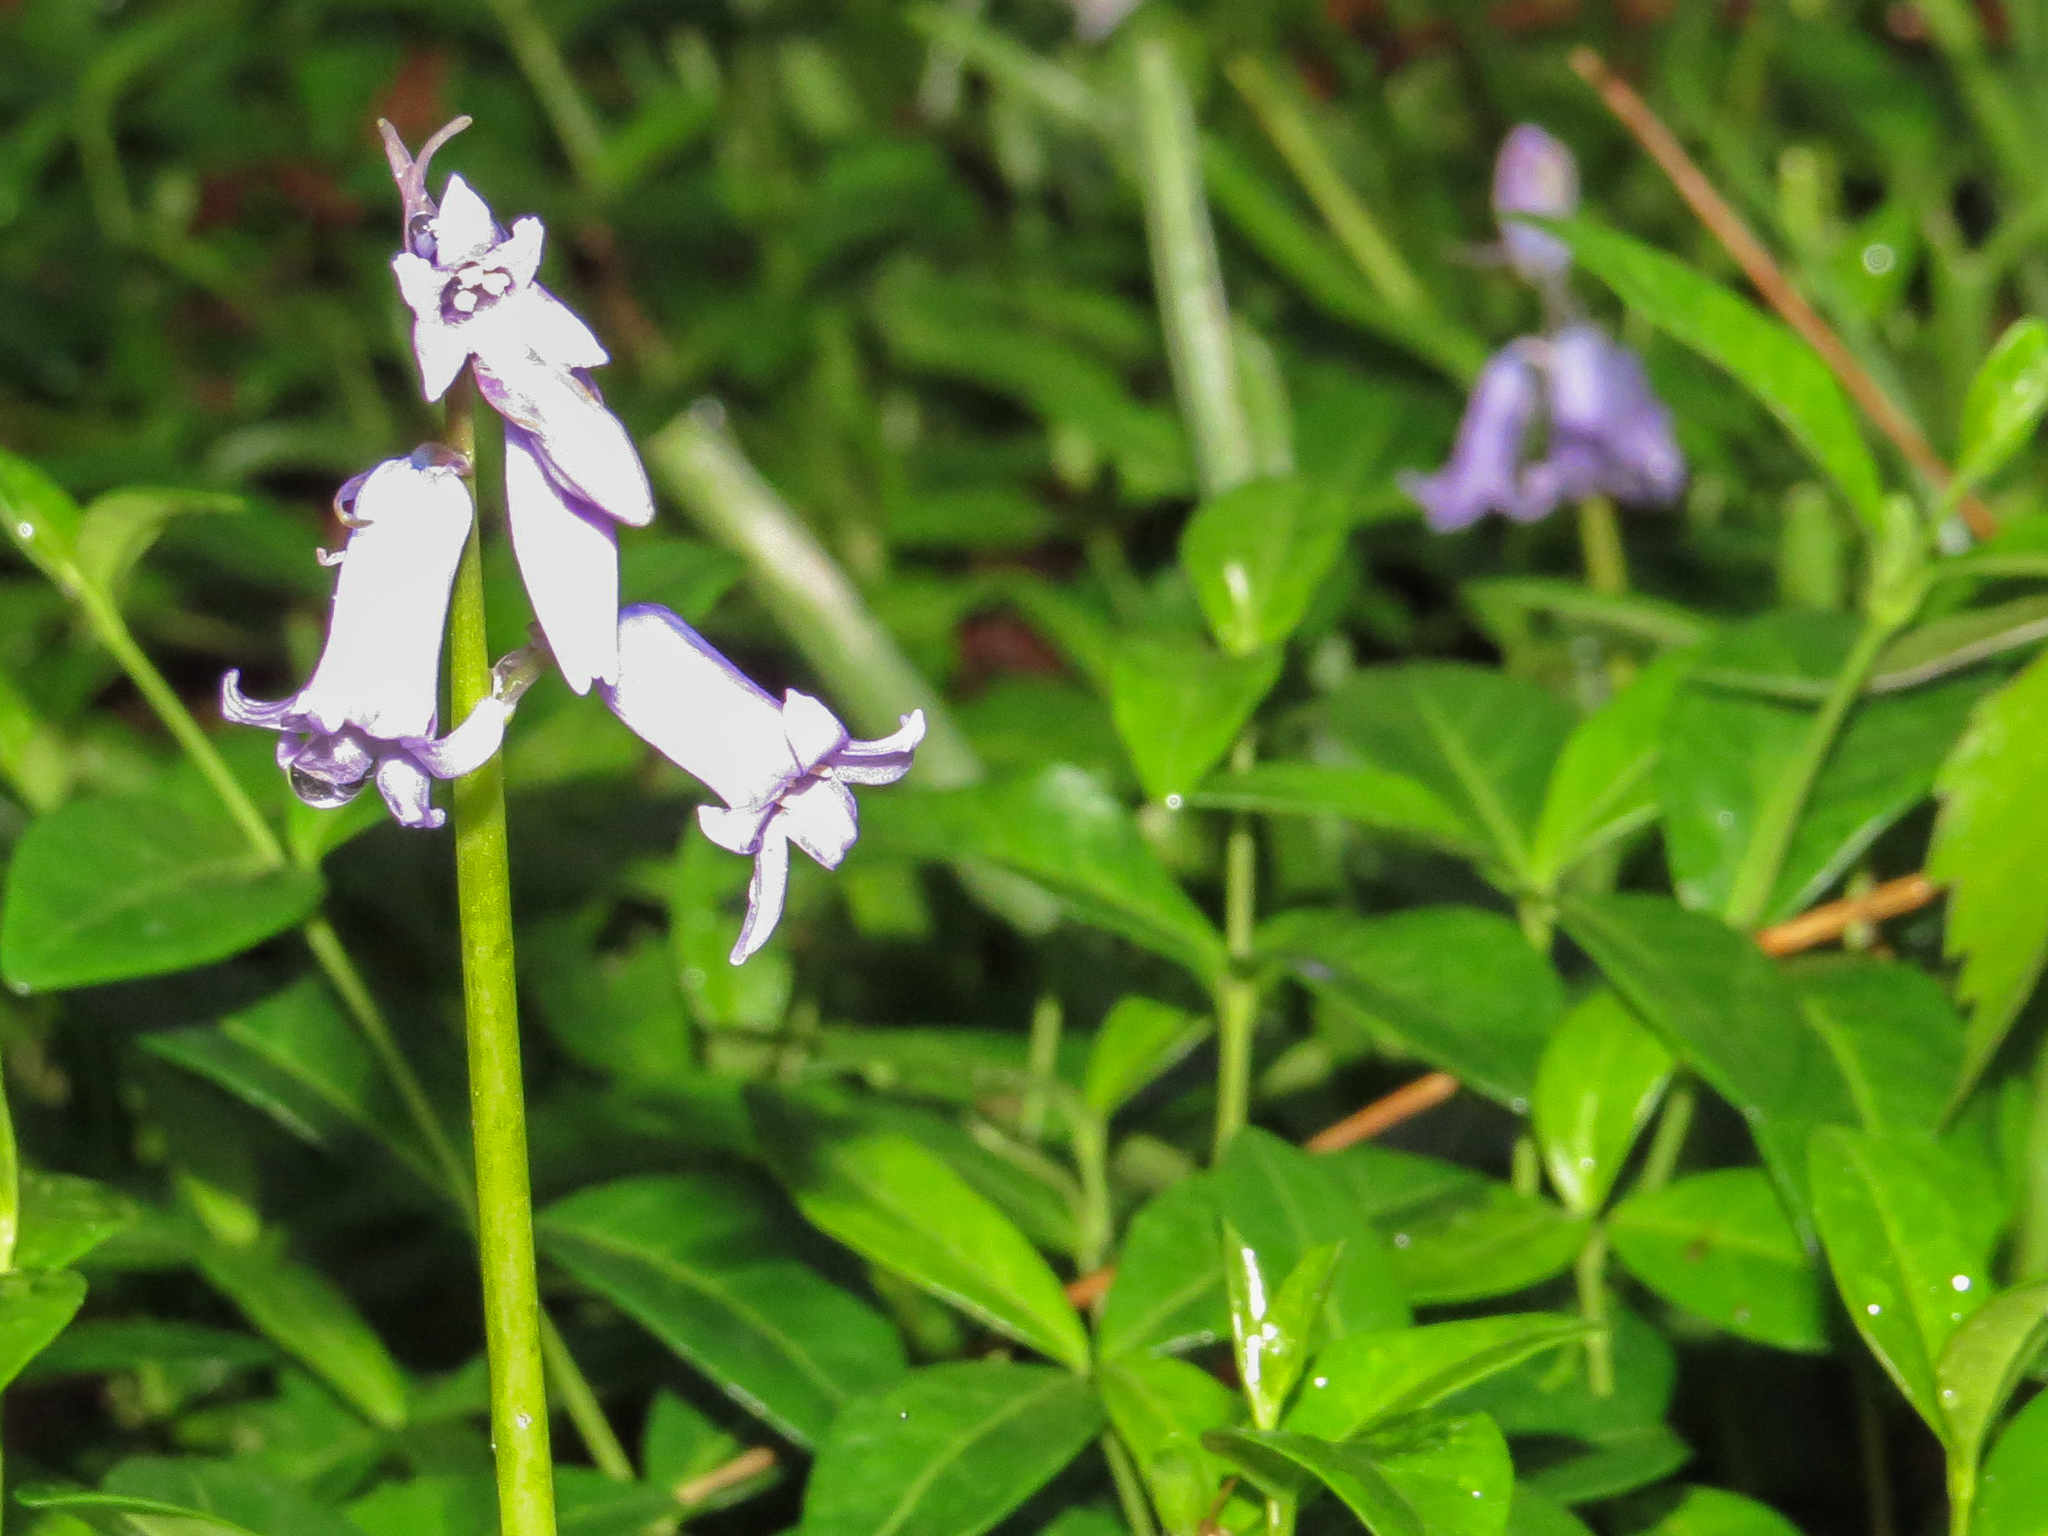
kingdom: Plantae
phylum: Tracheophyta
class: Liliopsida
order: Asparagales
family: Asparagaceae
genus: Hyacinthoides
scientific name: Hyacinthoides hispanica
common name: Spanish bluebell
